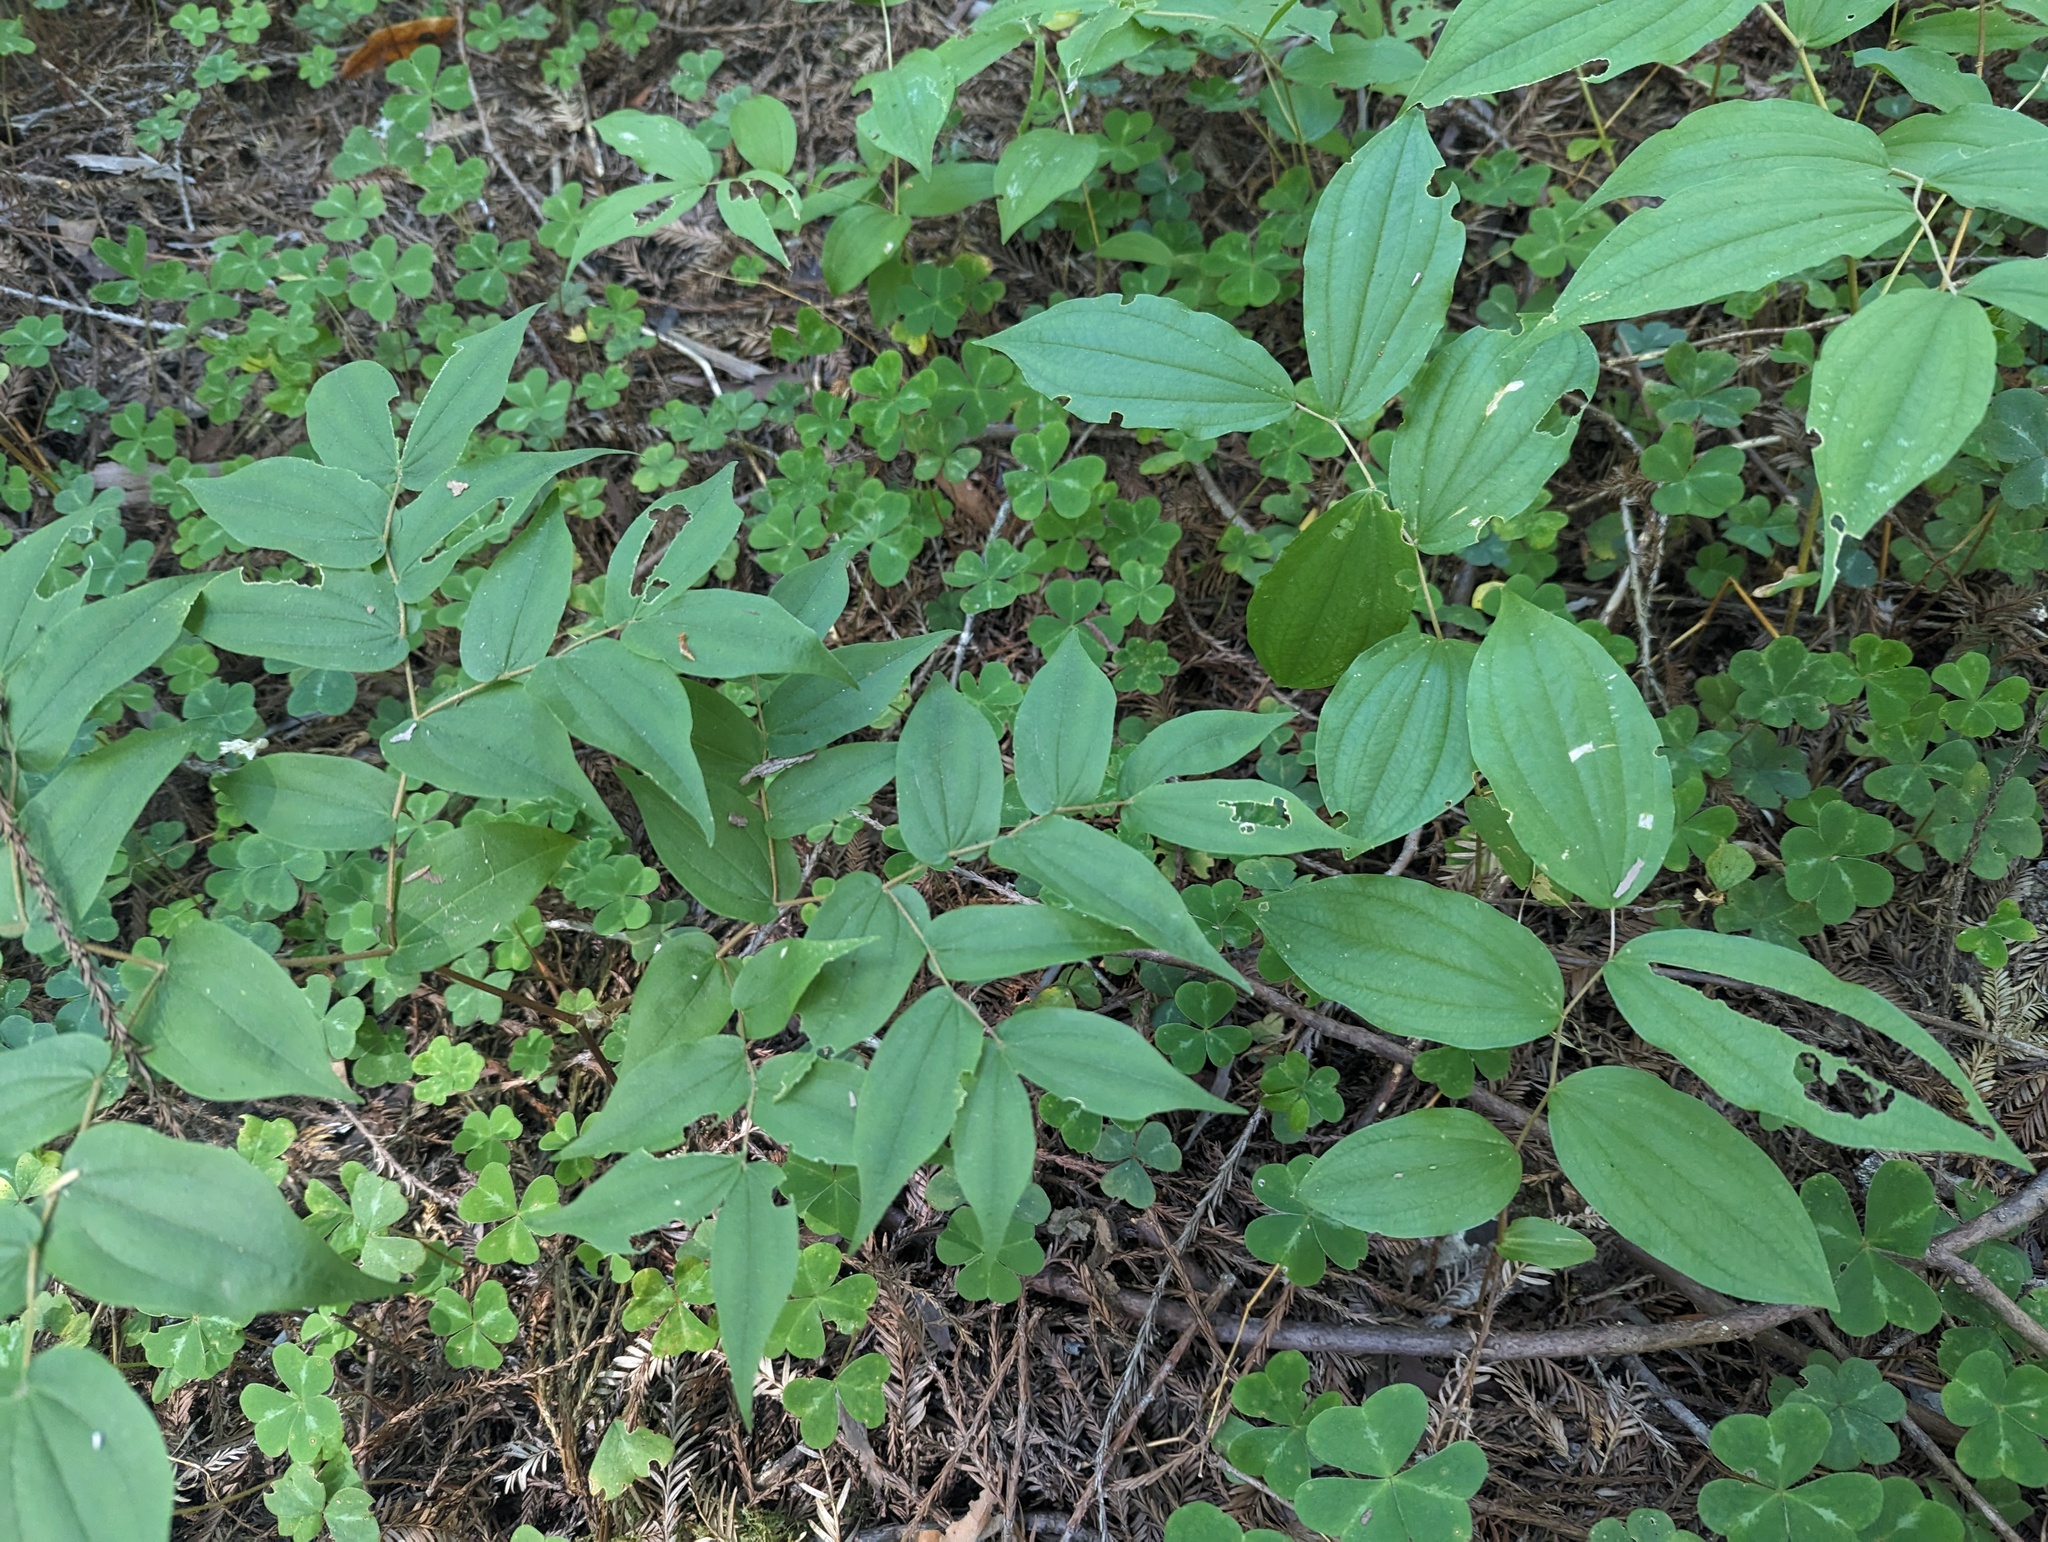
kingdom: Plantae
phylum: Tracheophyta
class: Liliopsida
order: Liliales
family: Liliaceae
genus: Prosartes
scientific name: Prosartes hookeri
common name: Fairy-bells
